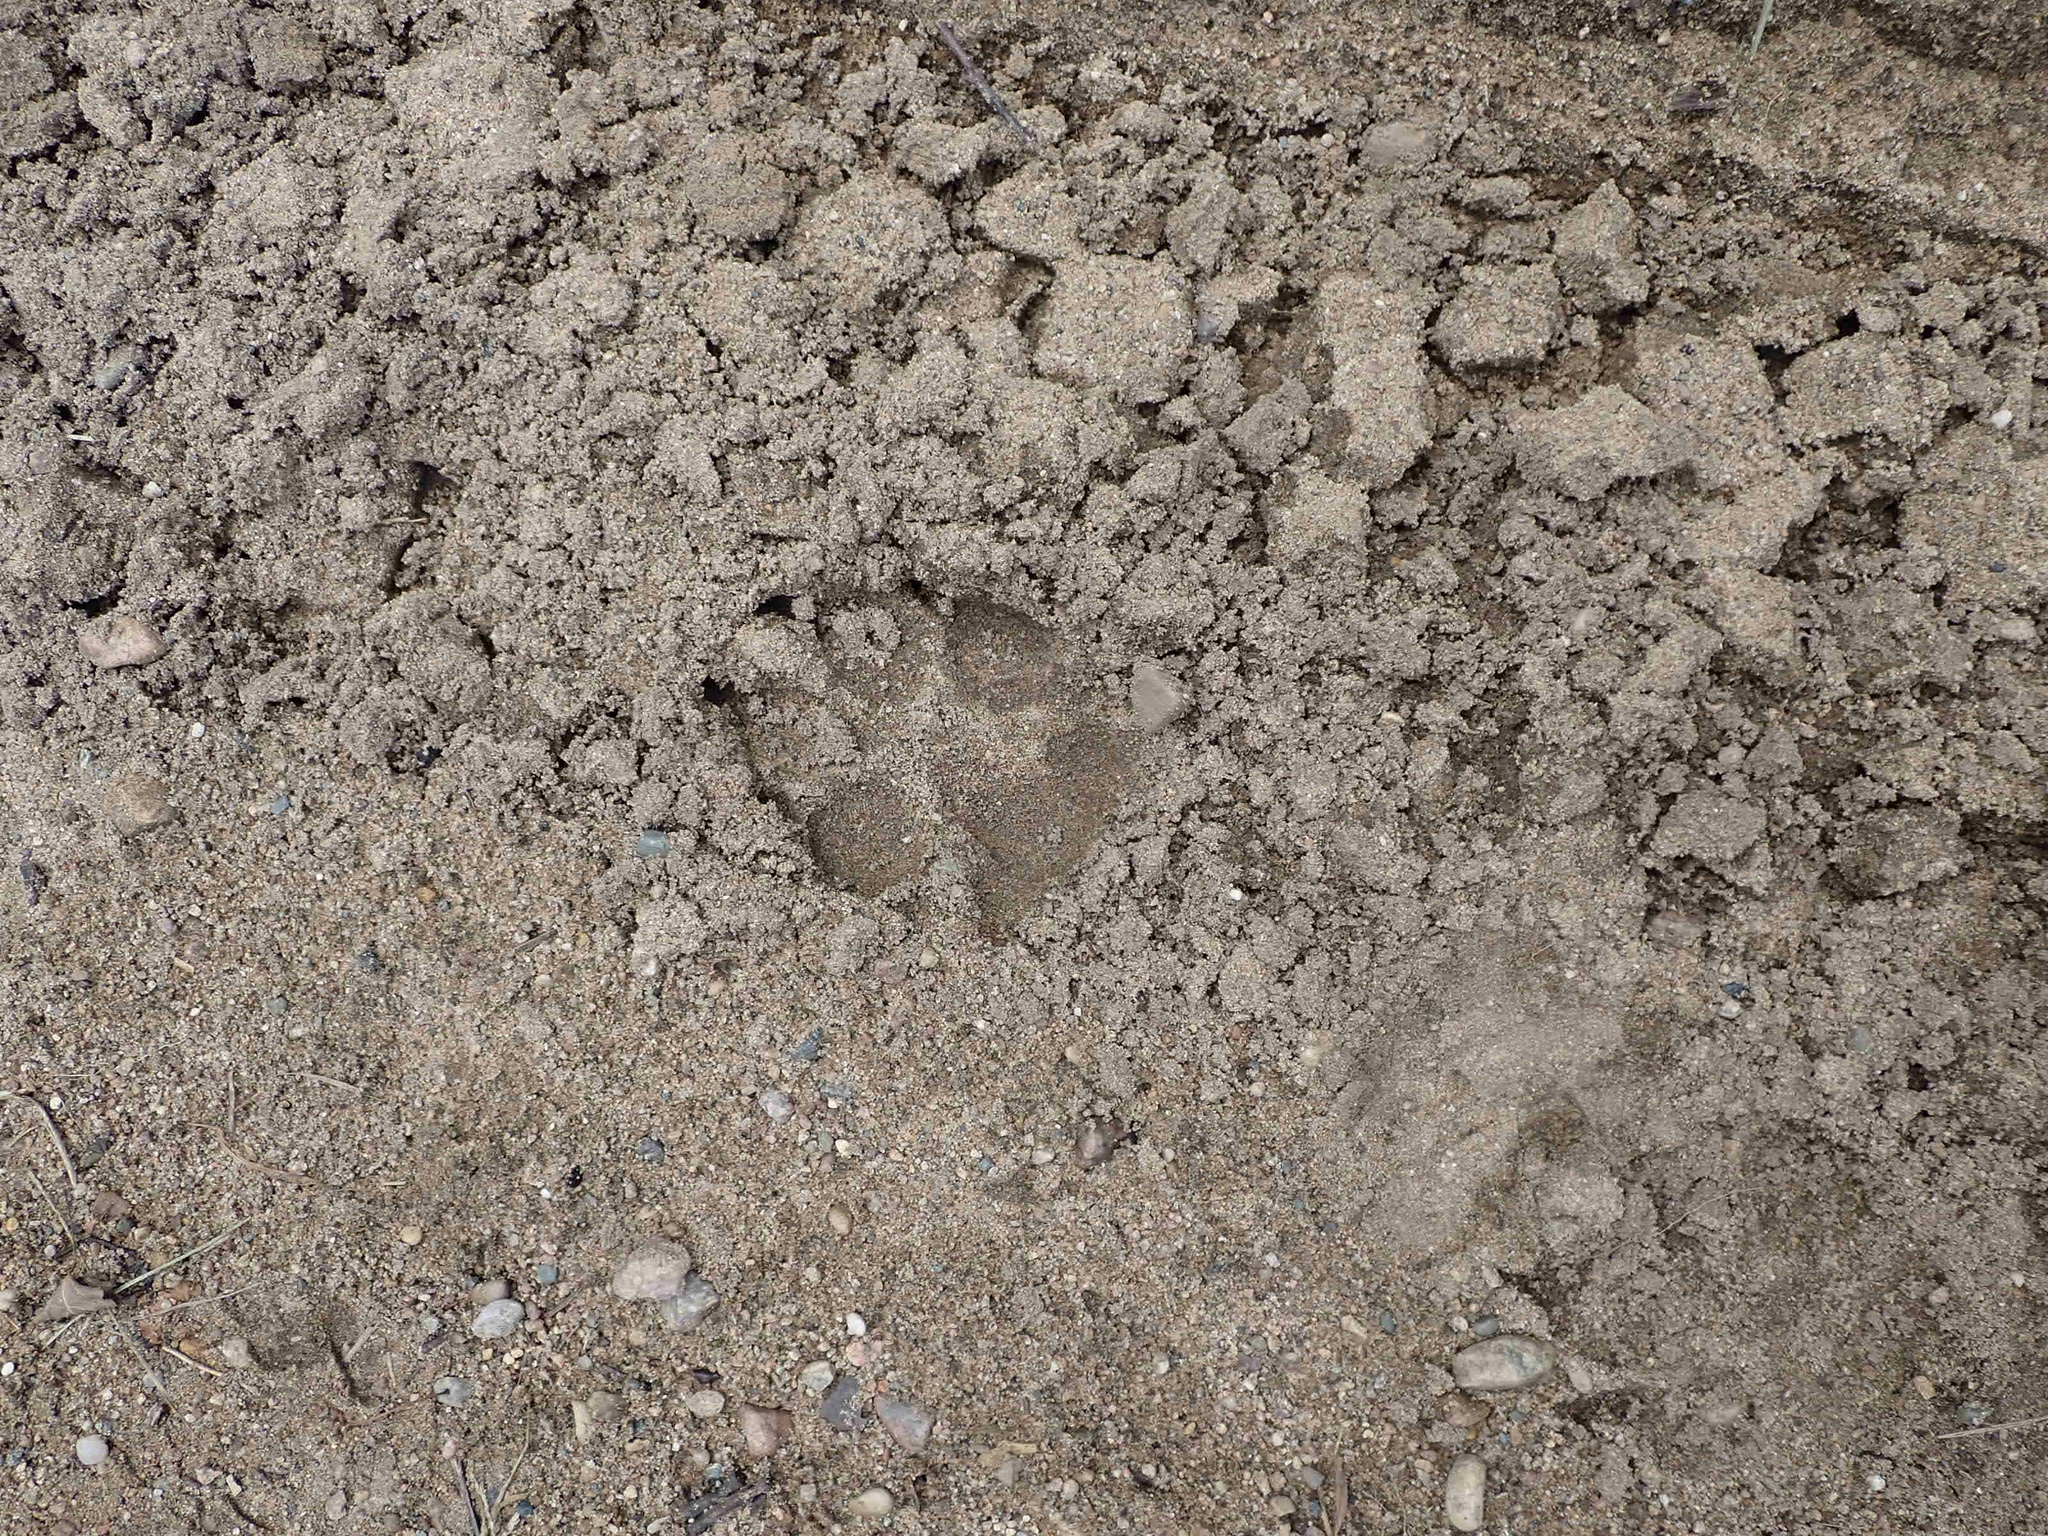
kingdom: Animalia
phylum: Chordata
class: Mammalia
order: Carnivora
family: Canidae
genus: Canis
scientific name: Canis lupus
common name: Gray wolf
